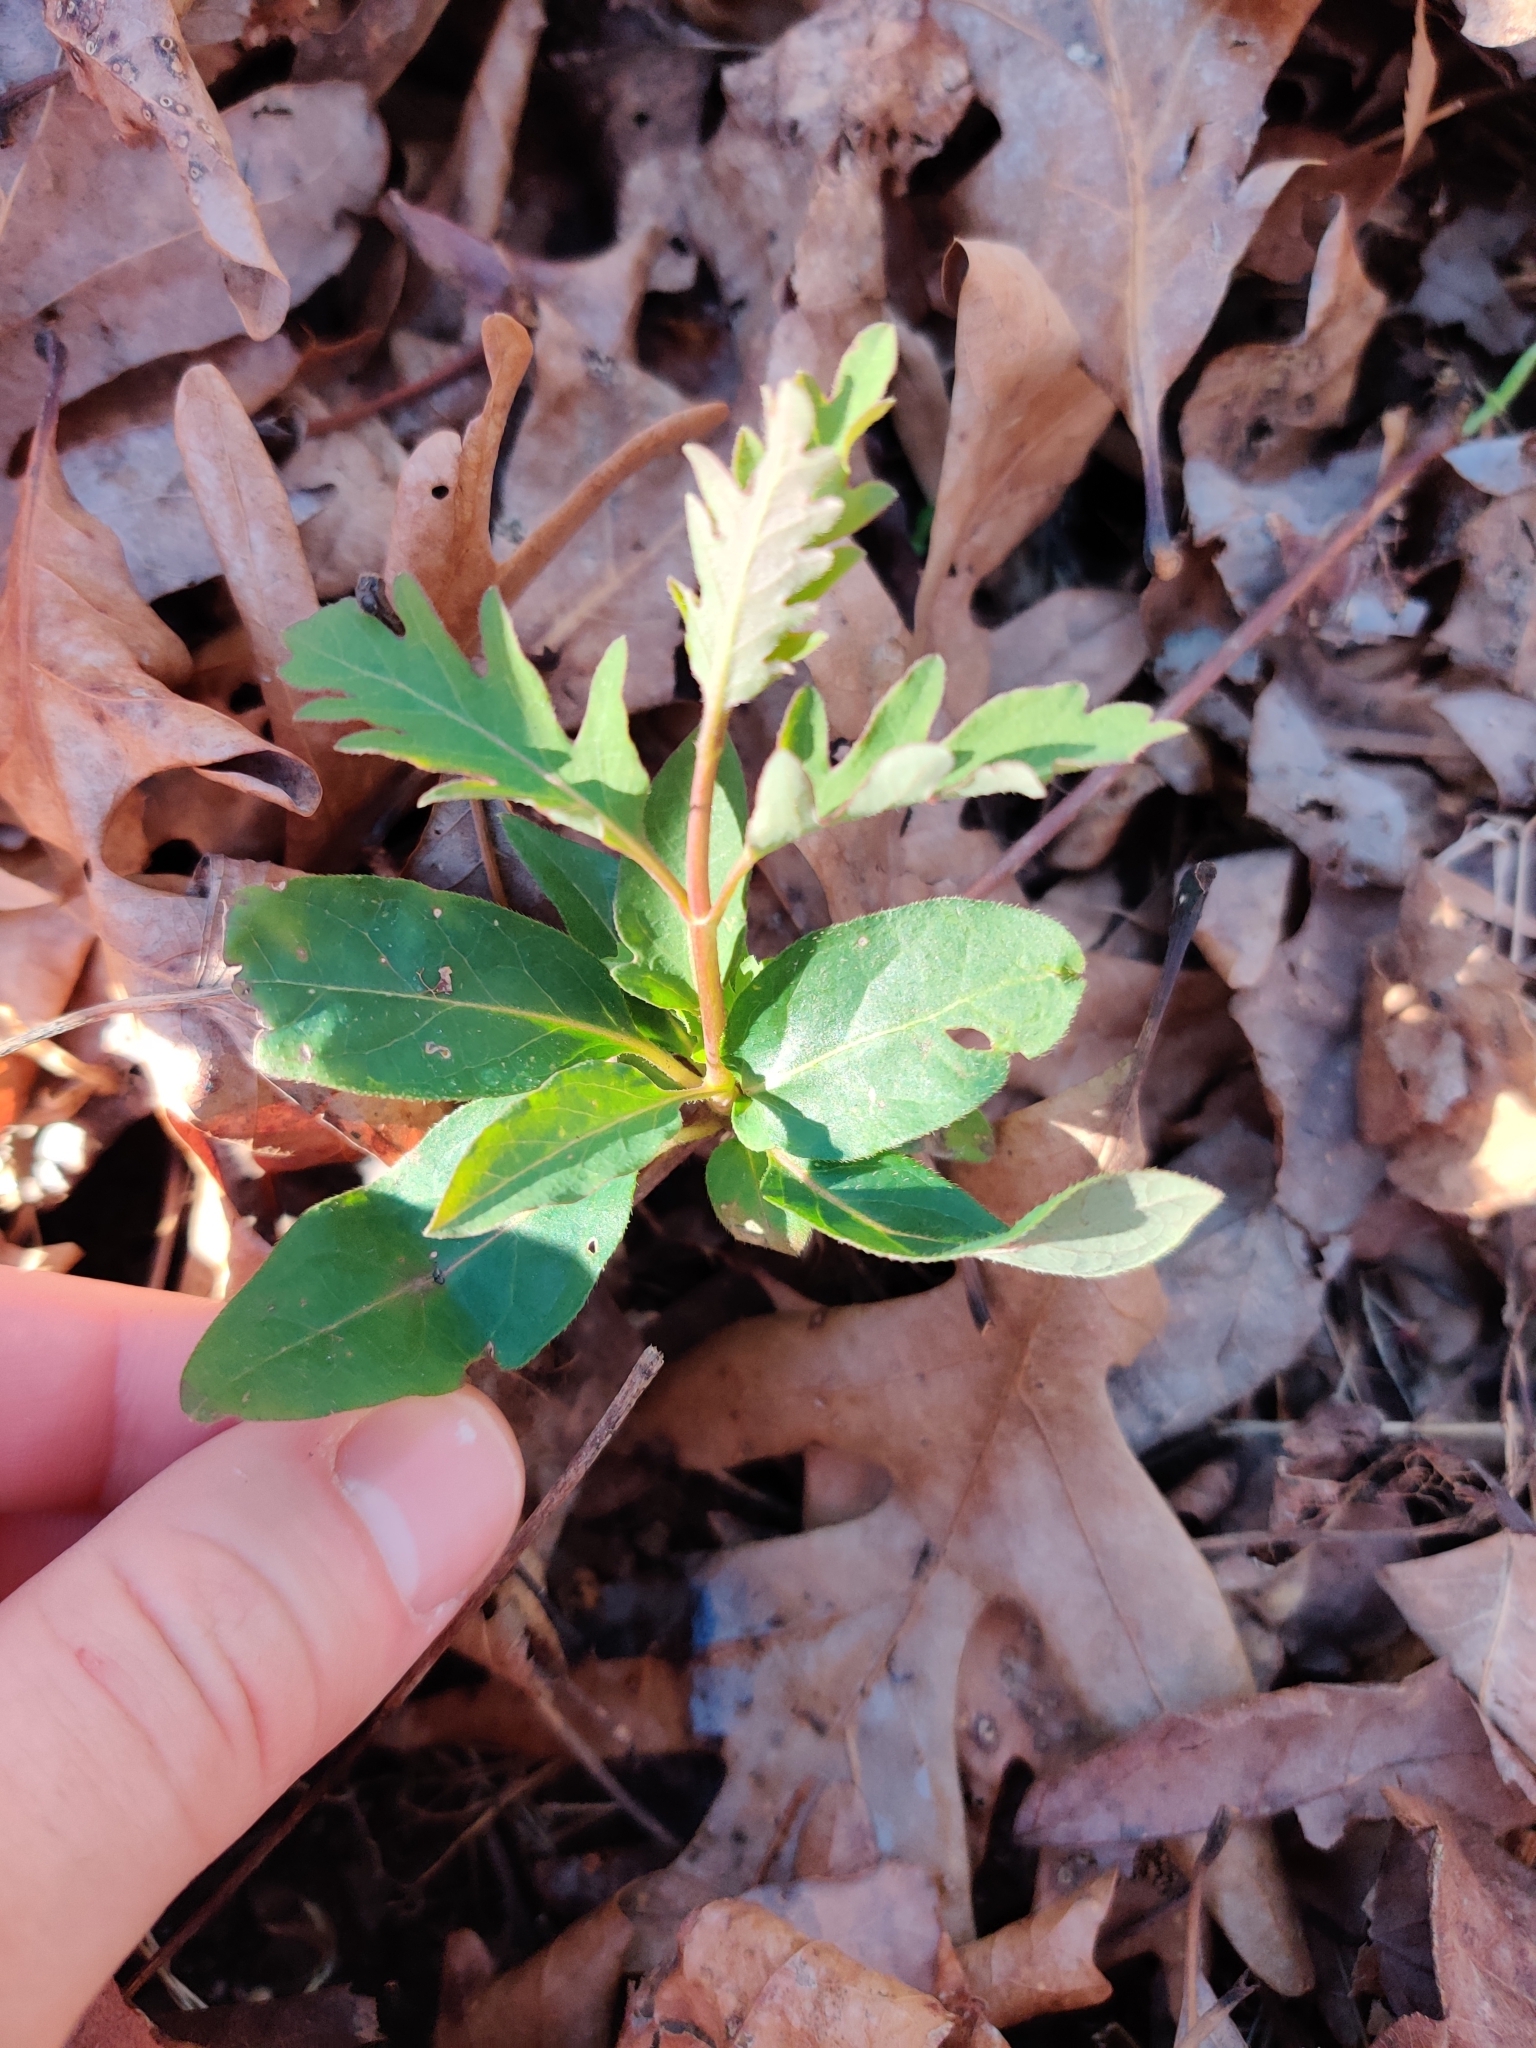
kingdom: Plantae
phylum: Tracheophyta
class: Magnoliopsida
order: Dipsacales
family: Caprifoliaceae
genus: Lonicera
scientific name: Lonicera japonica
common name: Japanese honeysuckle
